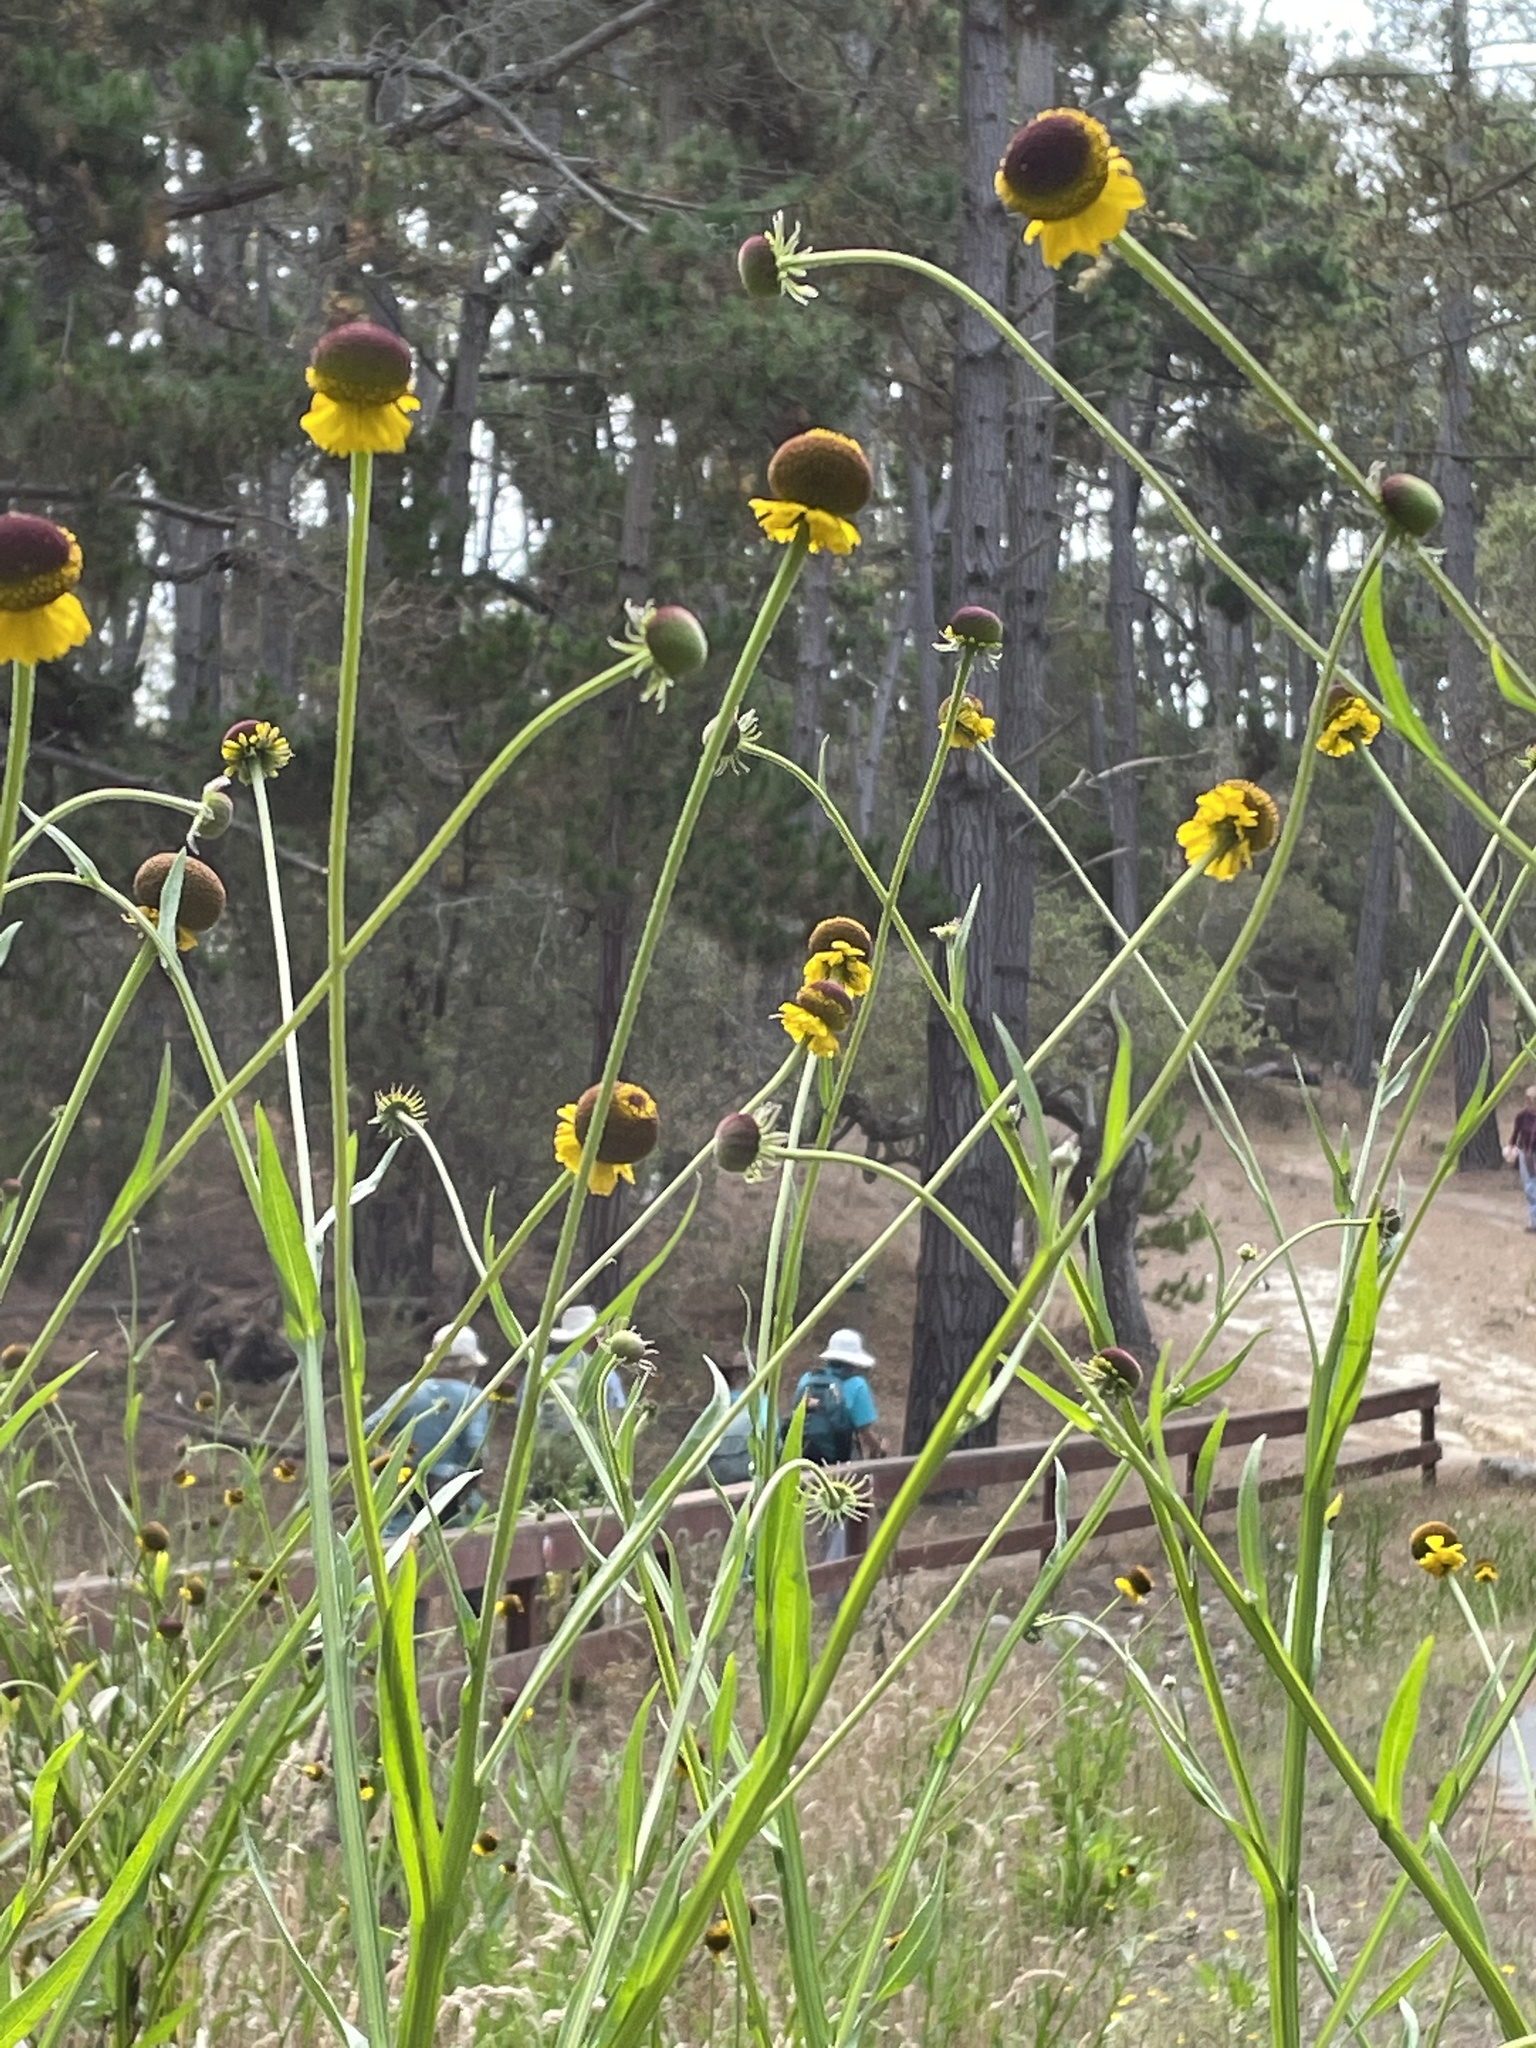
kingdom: Plantae
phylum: Tracheophyta
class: Magnoliopsida
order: Asterales
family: Asteraceae
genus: Helenium
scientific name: Helenium puberulum
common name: Sneezewort
